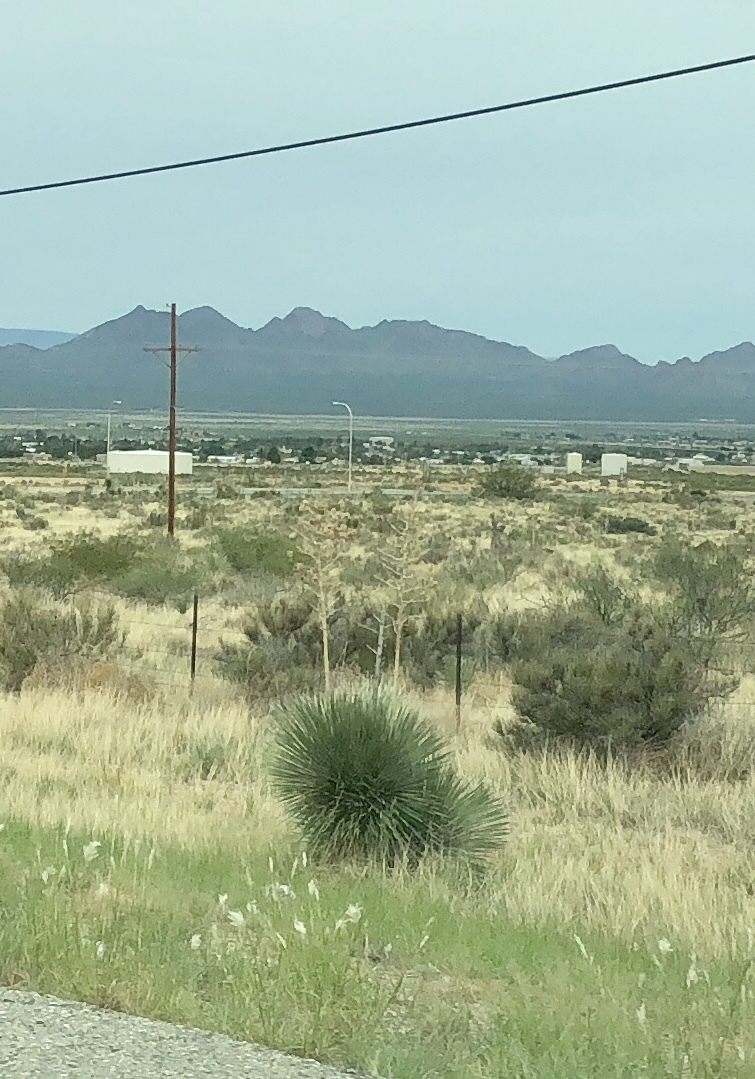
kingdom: Plantae
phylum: Tracheophyta
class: Liliopsida
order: Asparagales
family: Asparagaceae
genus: Yucca
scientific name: Yucca elata
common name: Palmella
